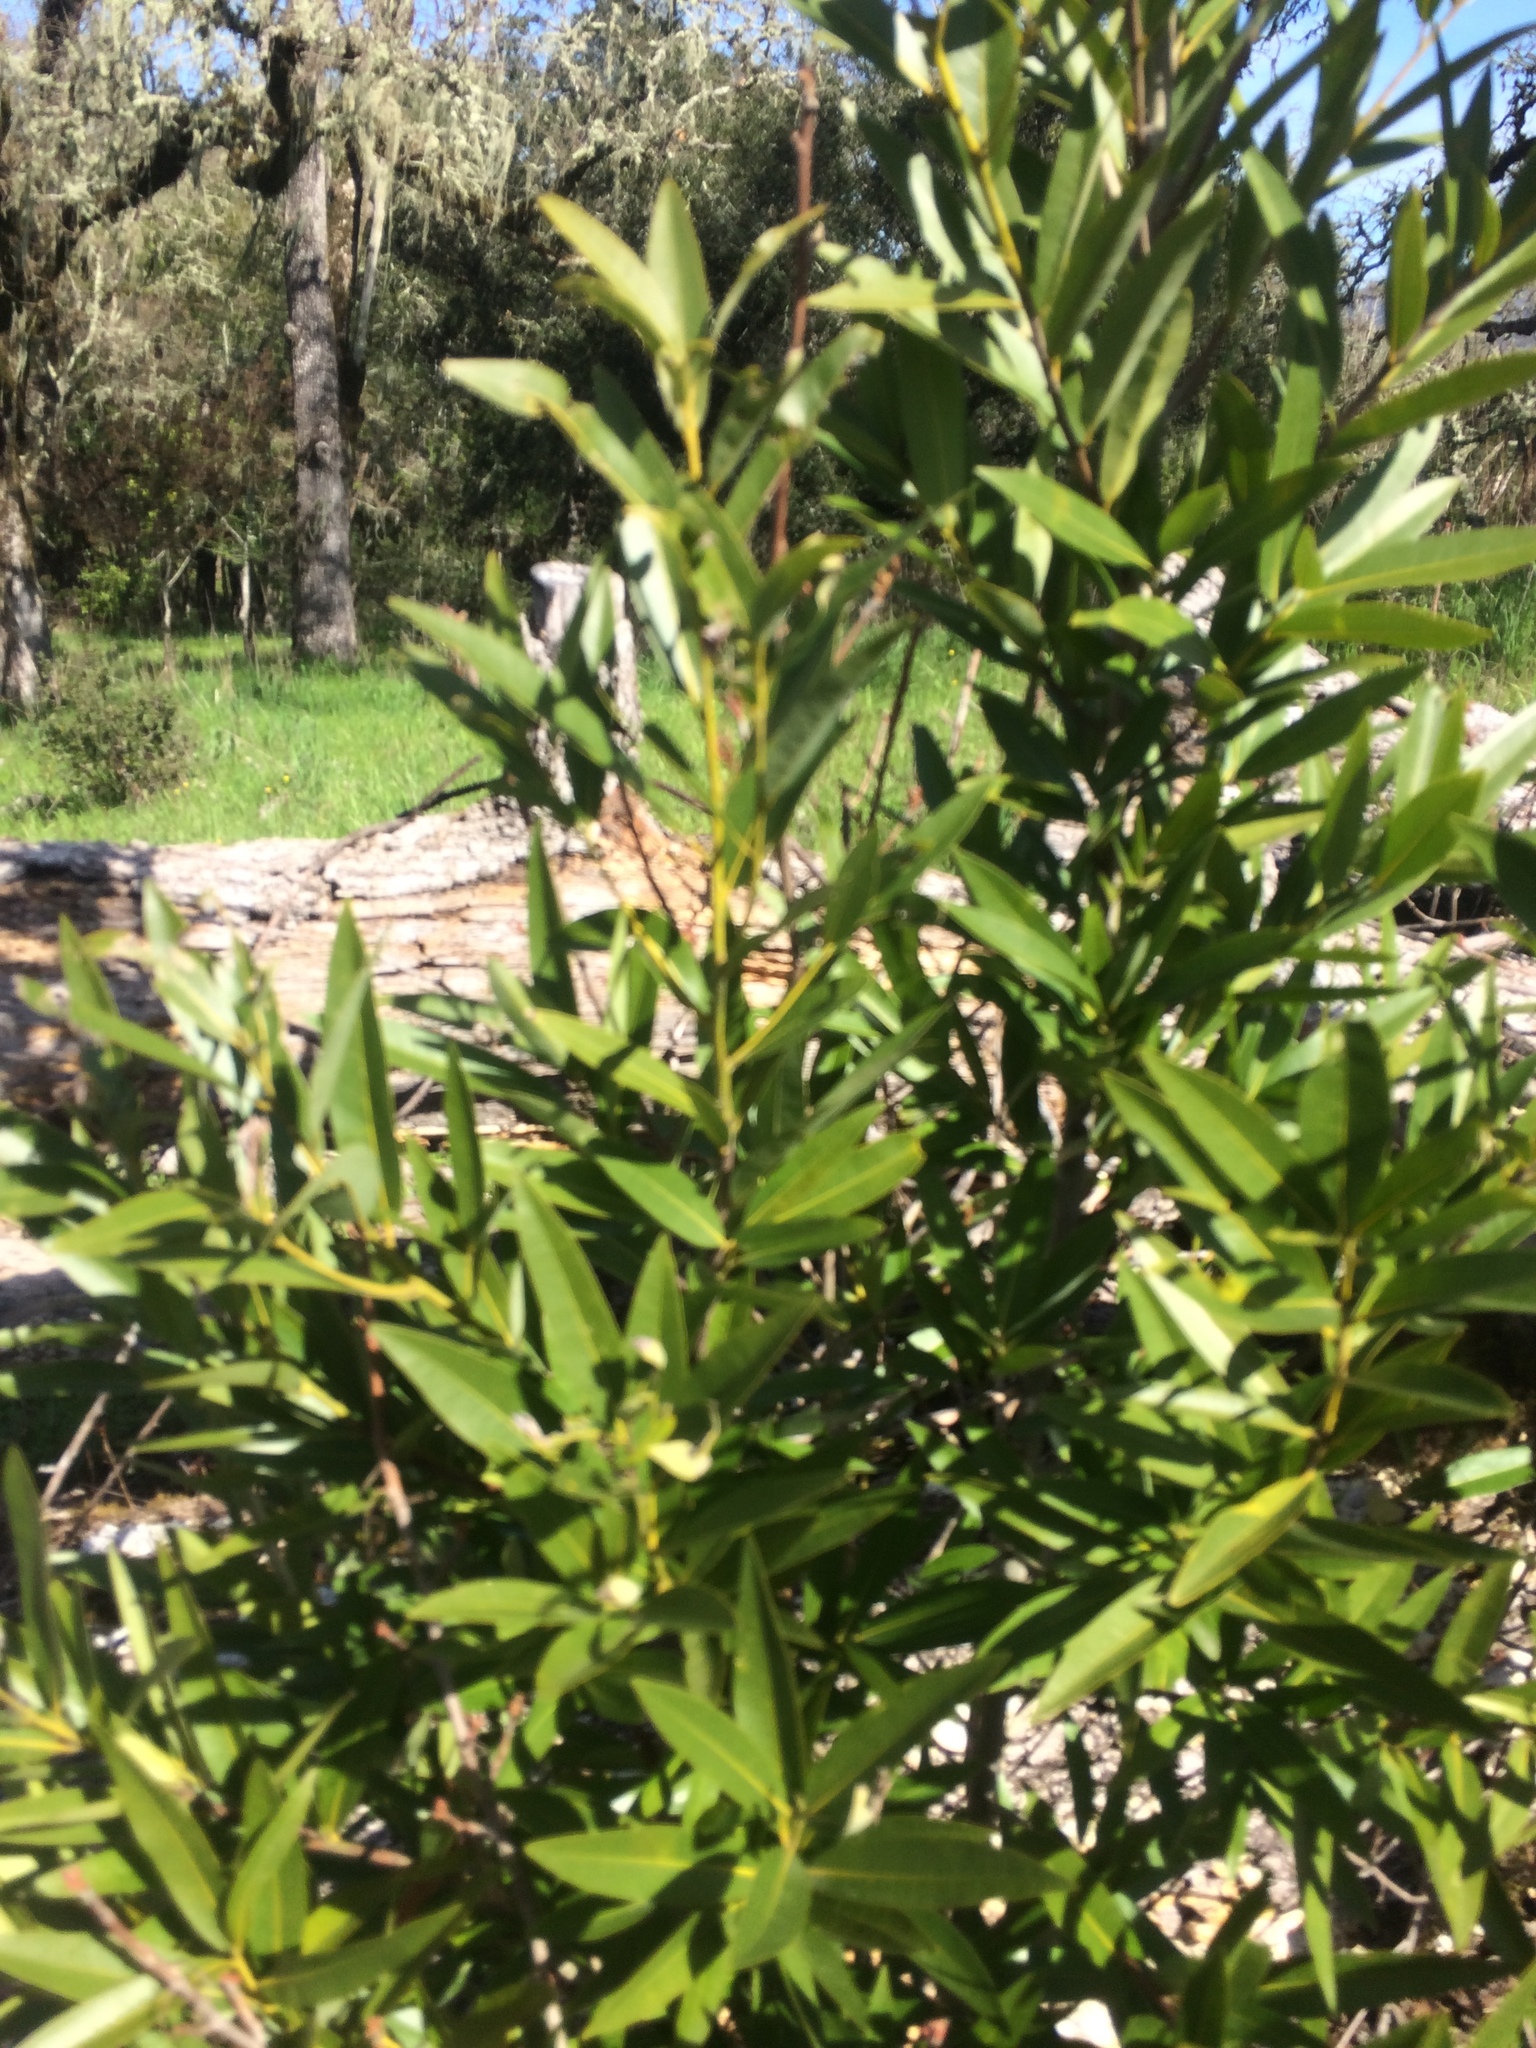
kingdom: Plantae
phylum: Tracheophyta
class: Magnoliopsida
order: Laurales
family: Lauraceae
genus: Umbellularia
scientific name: Umbellularia californica
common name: California bay
